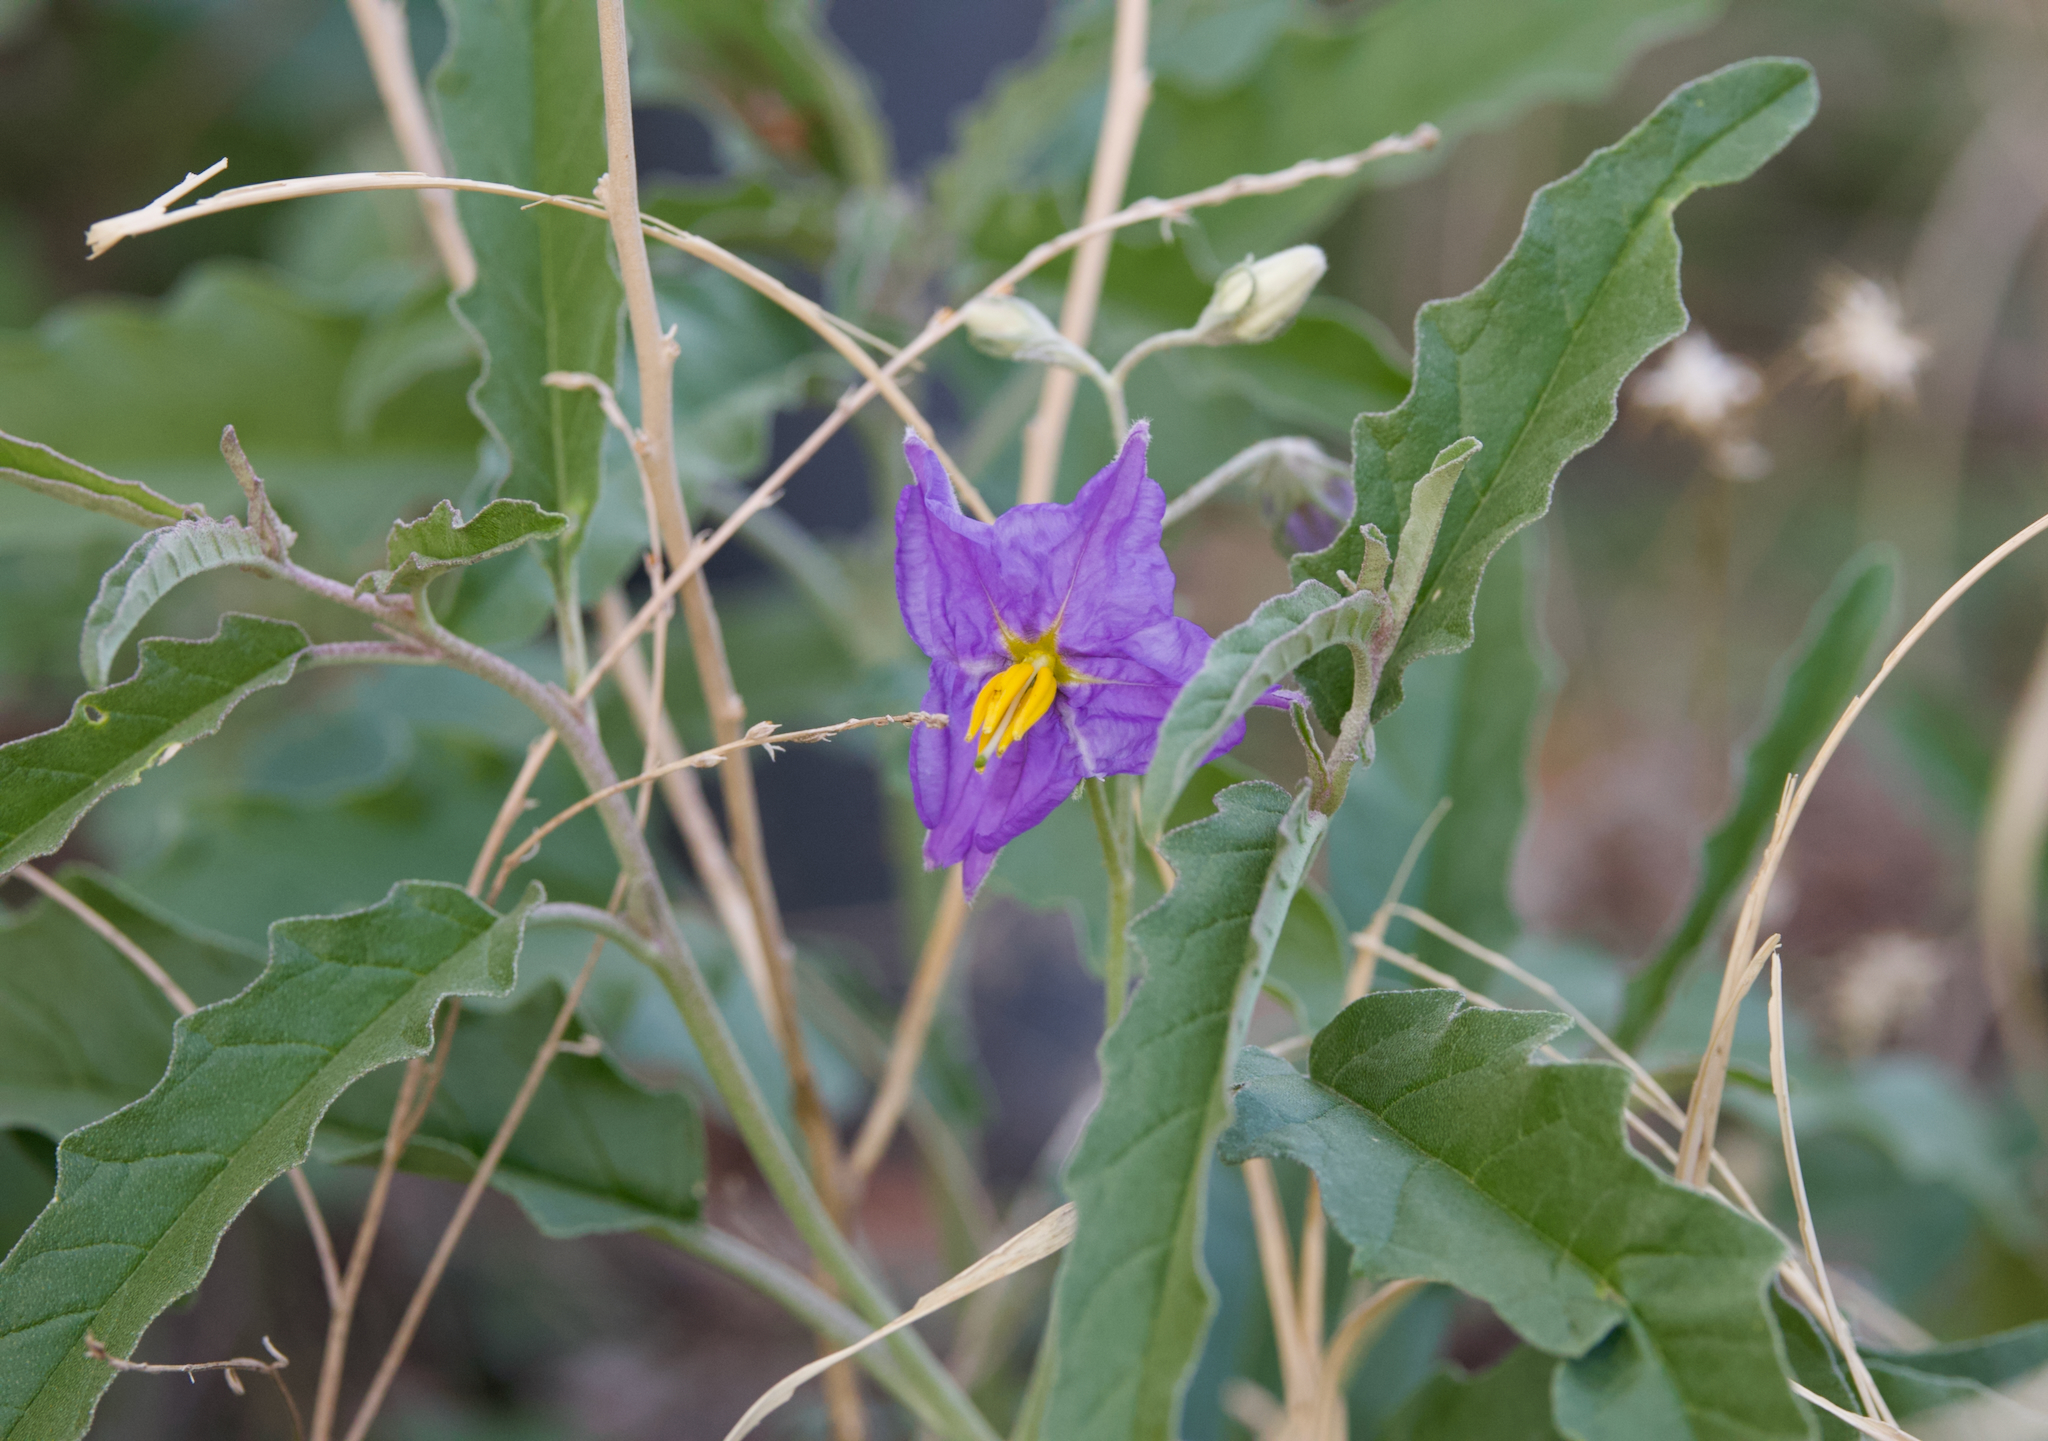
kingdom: Plantae
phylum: Tracheophyta
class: Magnoliopsida
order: Solanales
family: Solanaceae
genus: Solanum
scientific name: Solanum elaeagnifolium
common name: Silverleaf nightshade
